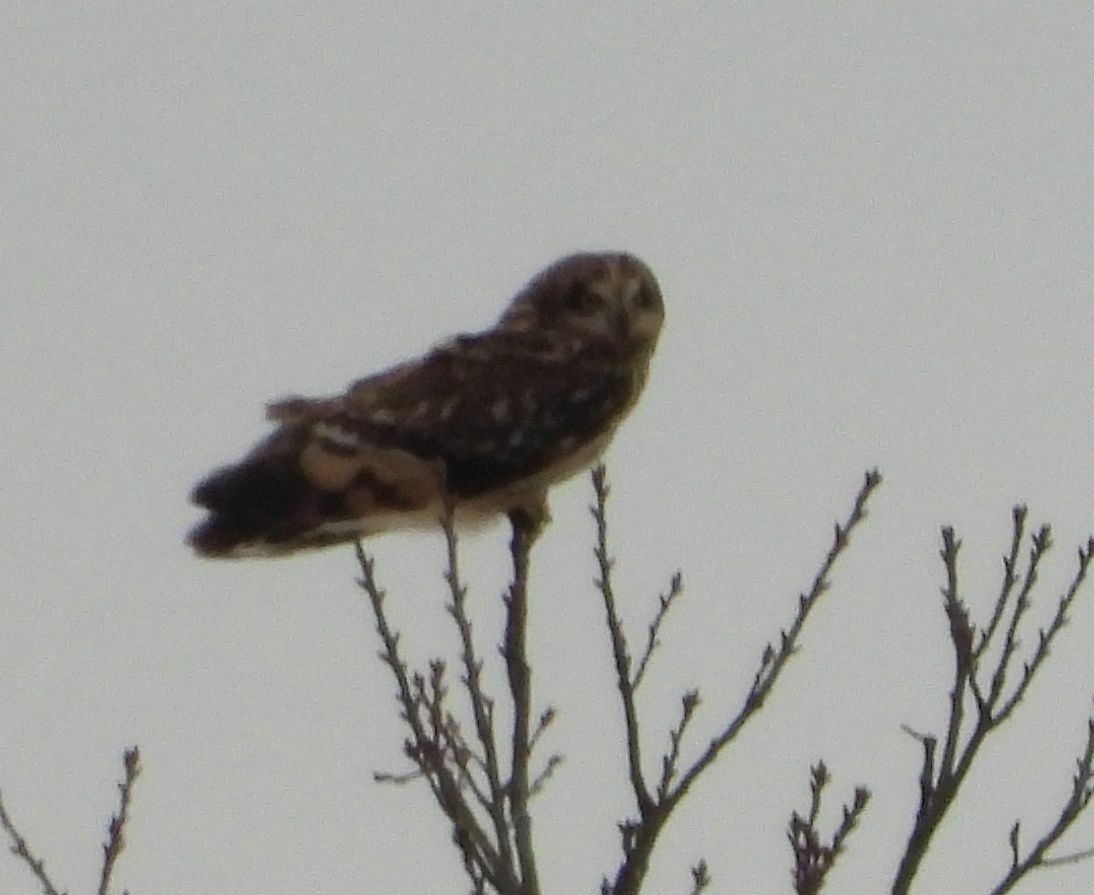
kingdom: Animalia
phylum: Chordata
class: Aves
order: Strigiformes
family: Strigidae
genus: Asio
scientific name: Asio flammeus
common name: Short-eared owl
